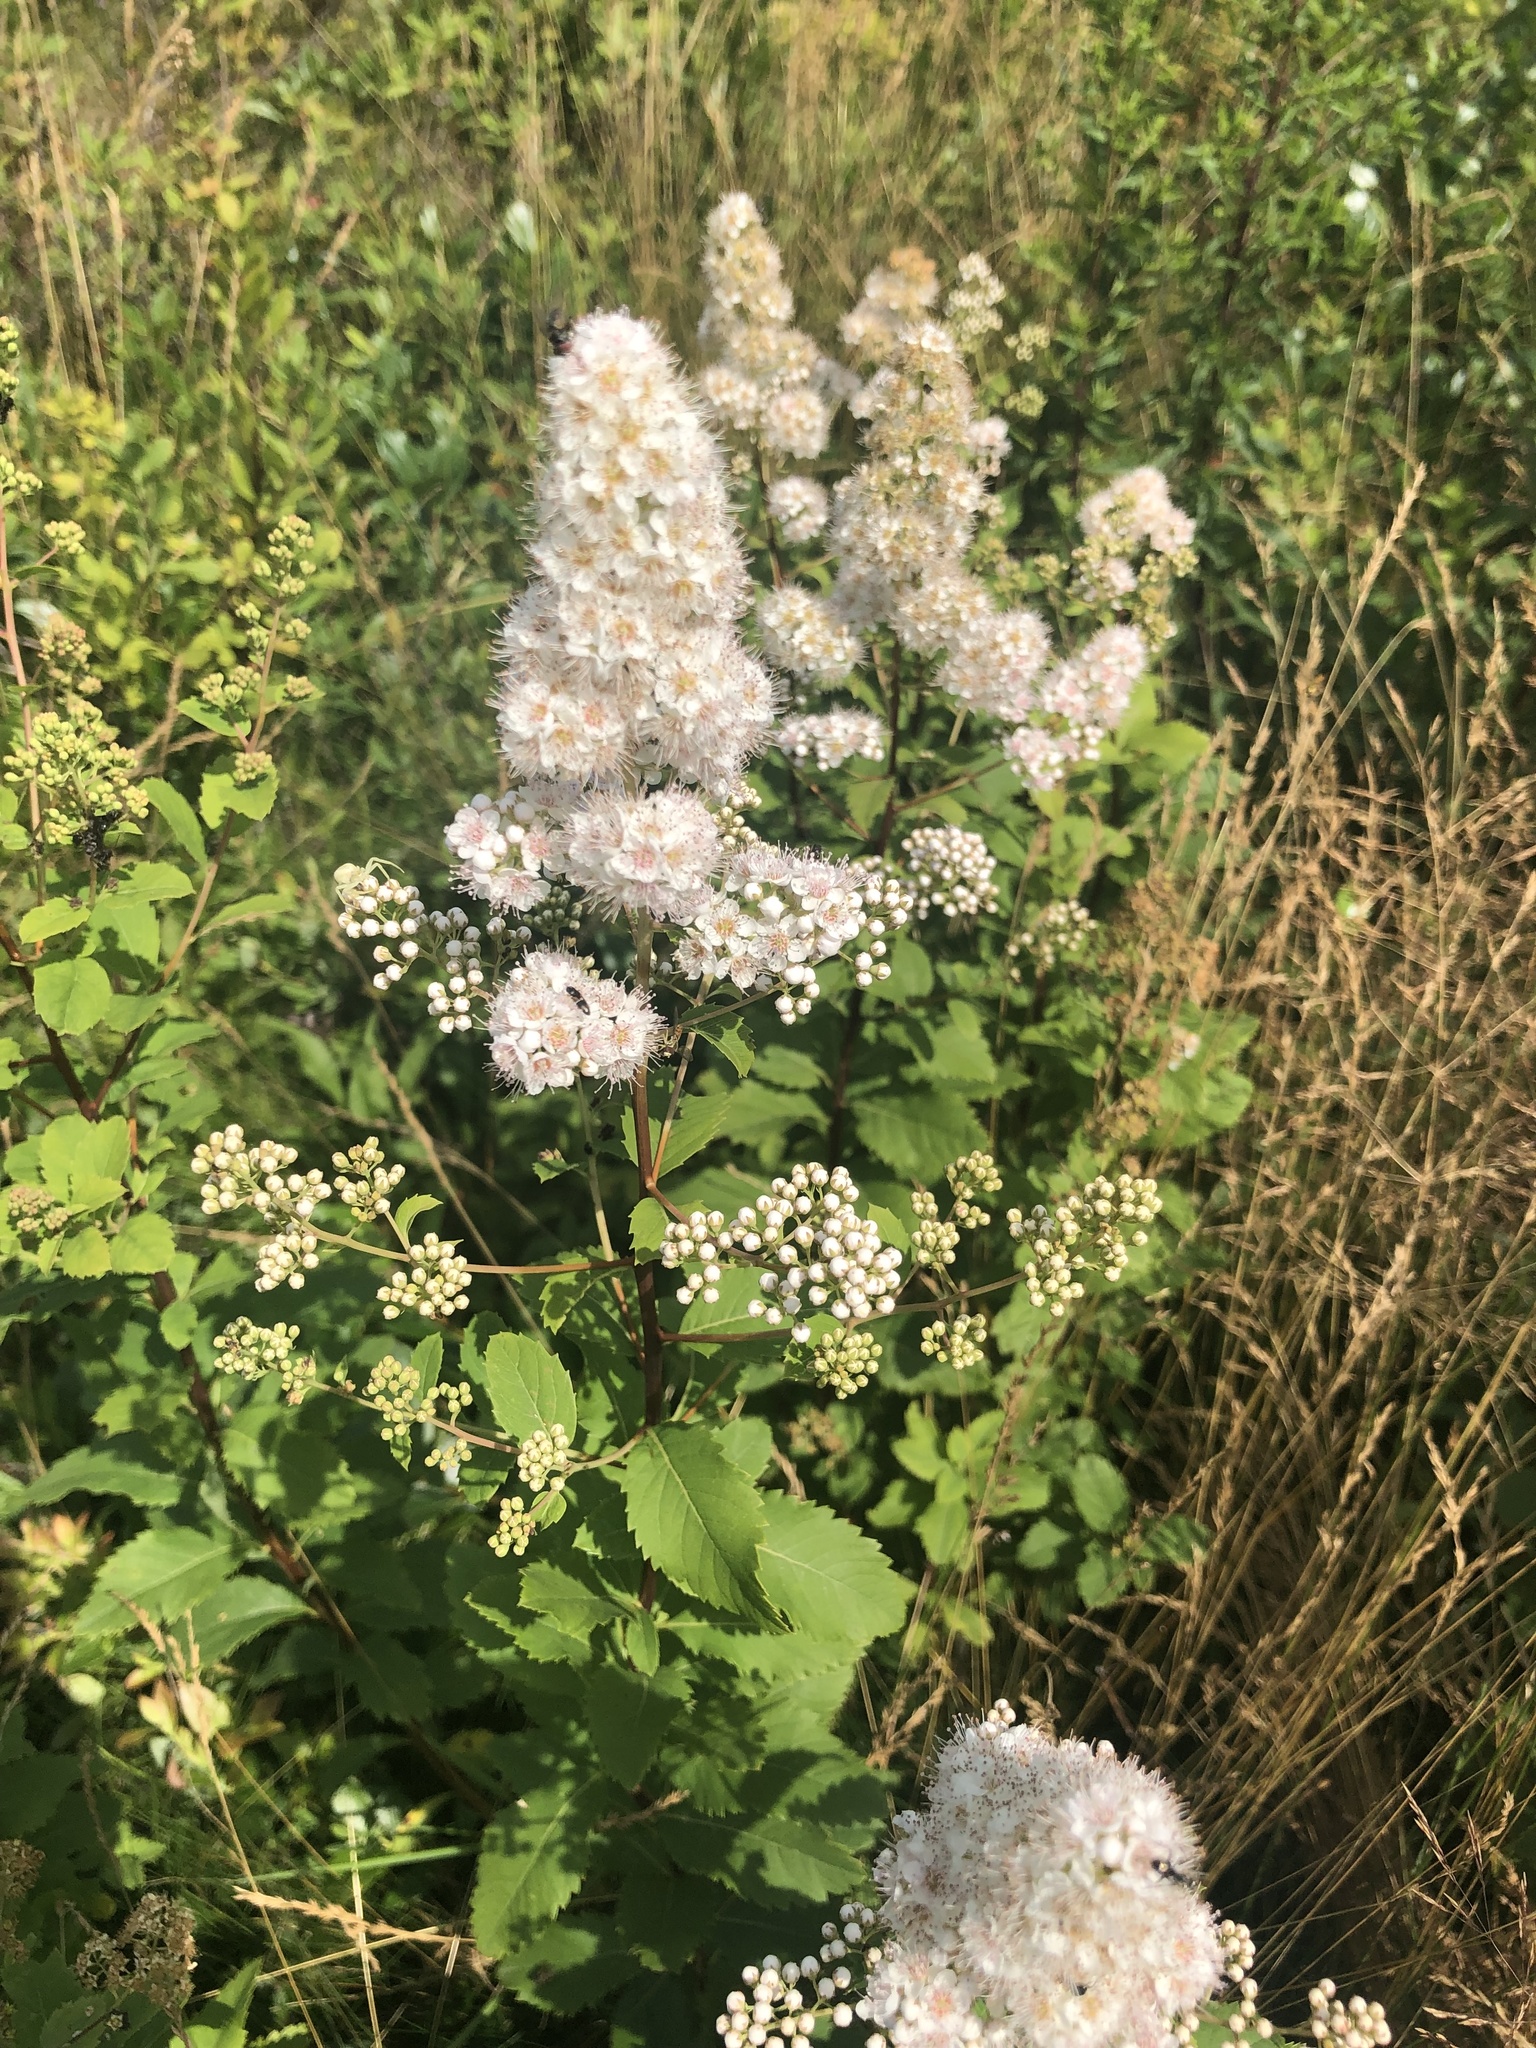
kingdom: Plantae
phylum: Tracheophyta
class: Magnoliopsida
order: Rosales
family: Rosaceae
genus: Spiraea
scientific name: Spiraea alba
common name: Pale bridewort
